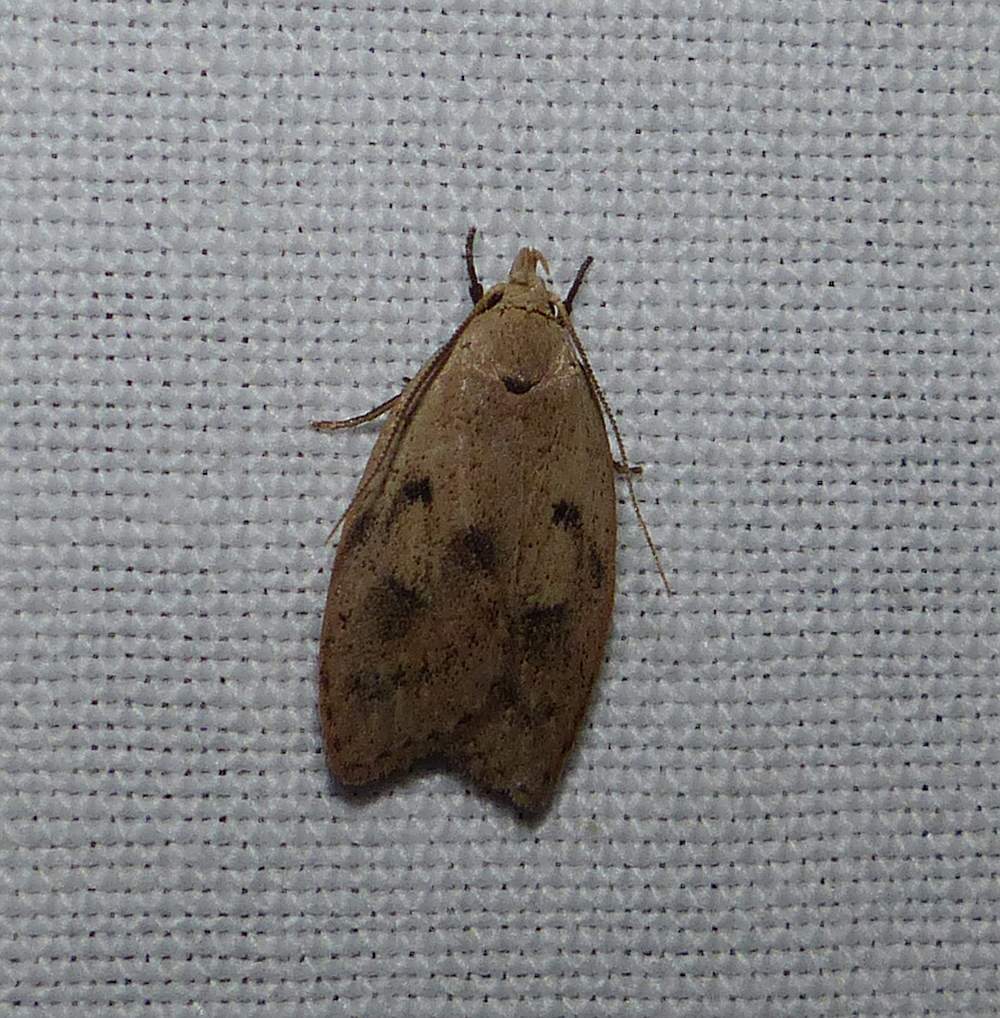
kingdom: Animalia
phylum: Arthropoda
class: Insecta
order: Lepidoptera
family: Peleopodidae
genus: Machimia
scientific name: Machimia tentoriferella
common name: Gold-striped leaftier moth
